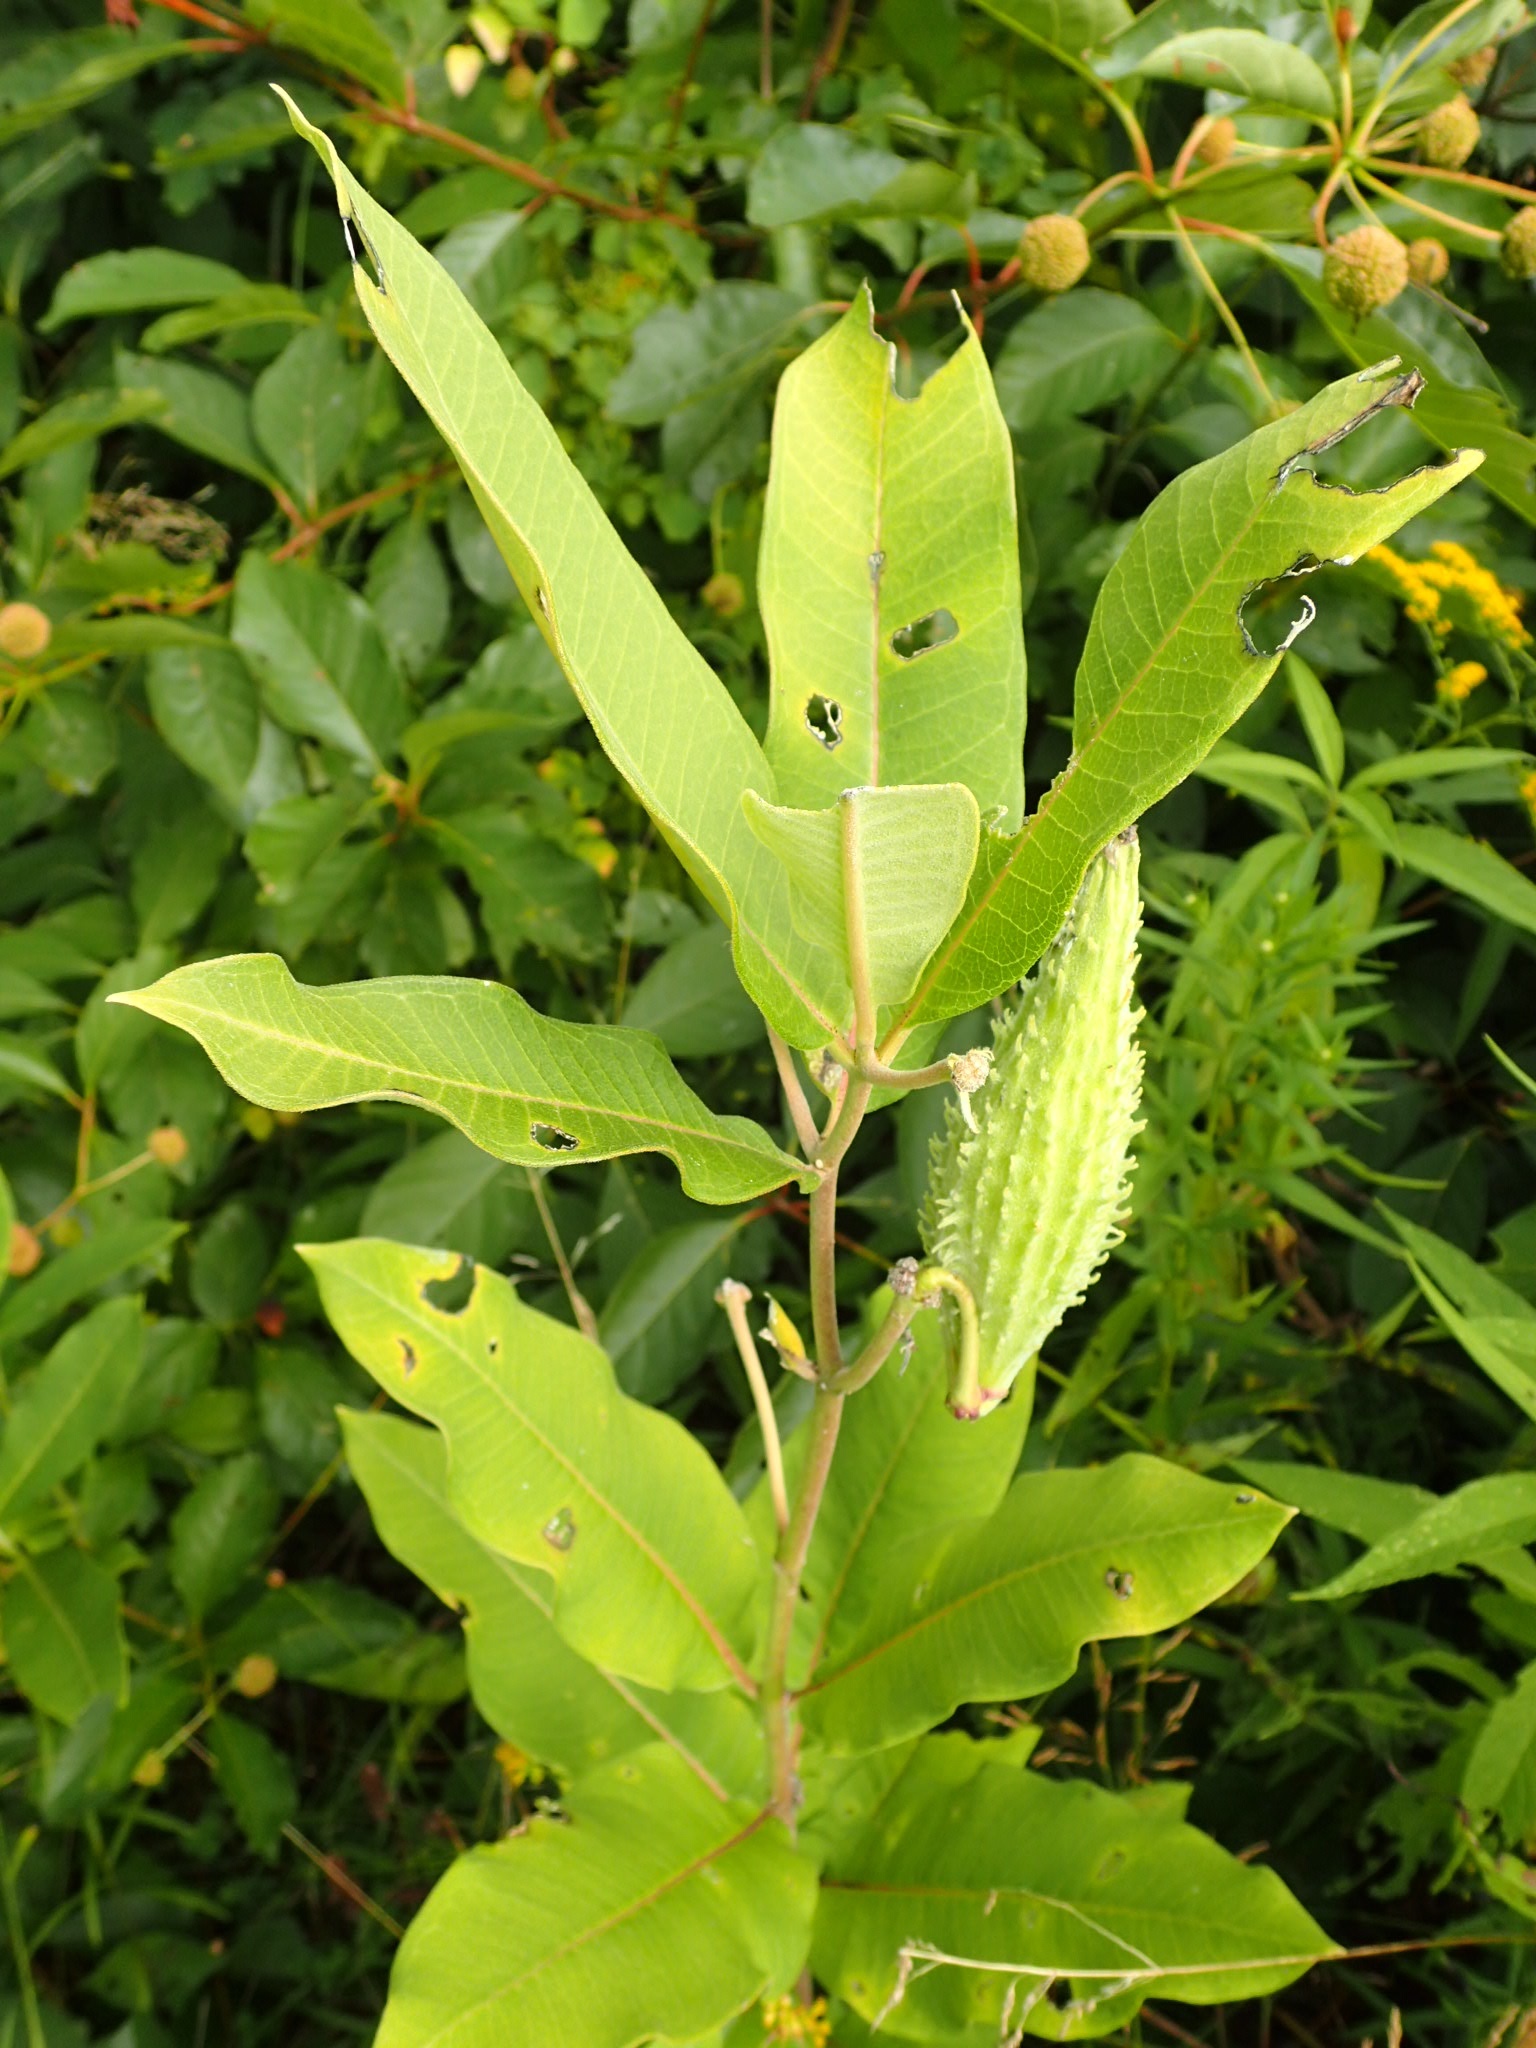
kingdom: Plantae
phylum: Tracheophyta
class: Magnoliopsida
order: Gentianales
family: Apocynaceae
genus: Asclepias
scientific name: Asclepias syriaca
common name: Common milkweed
